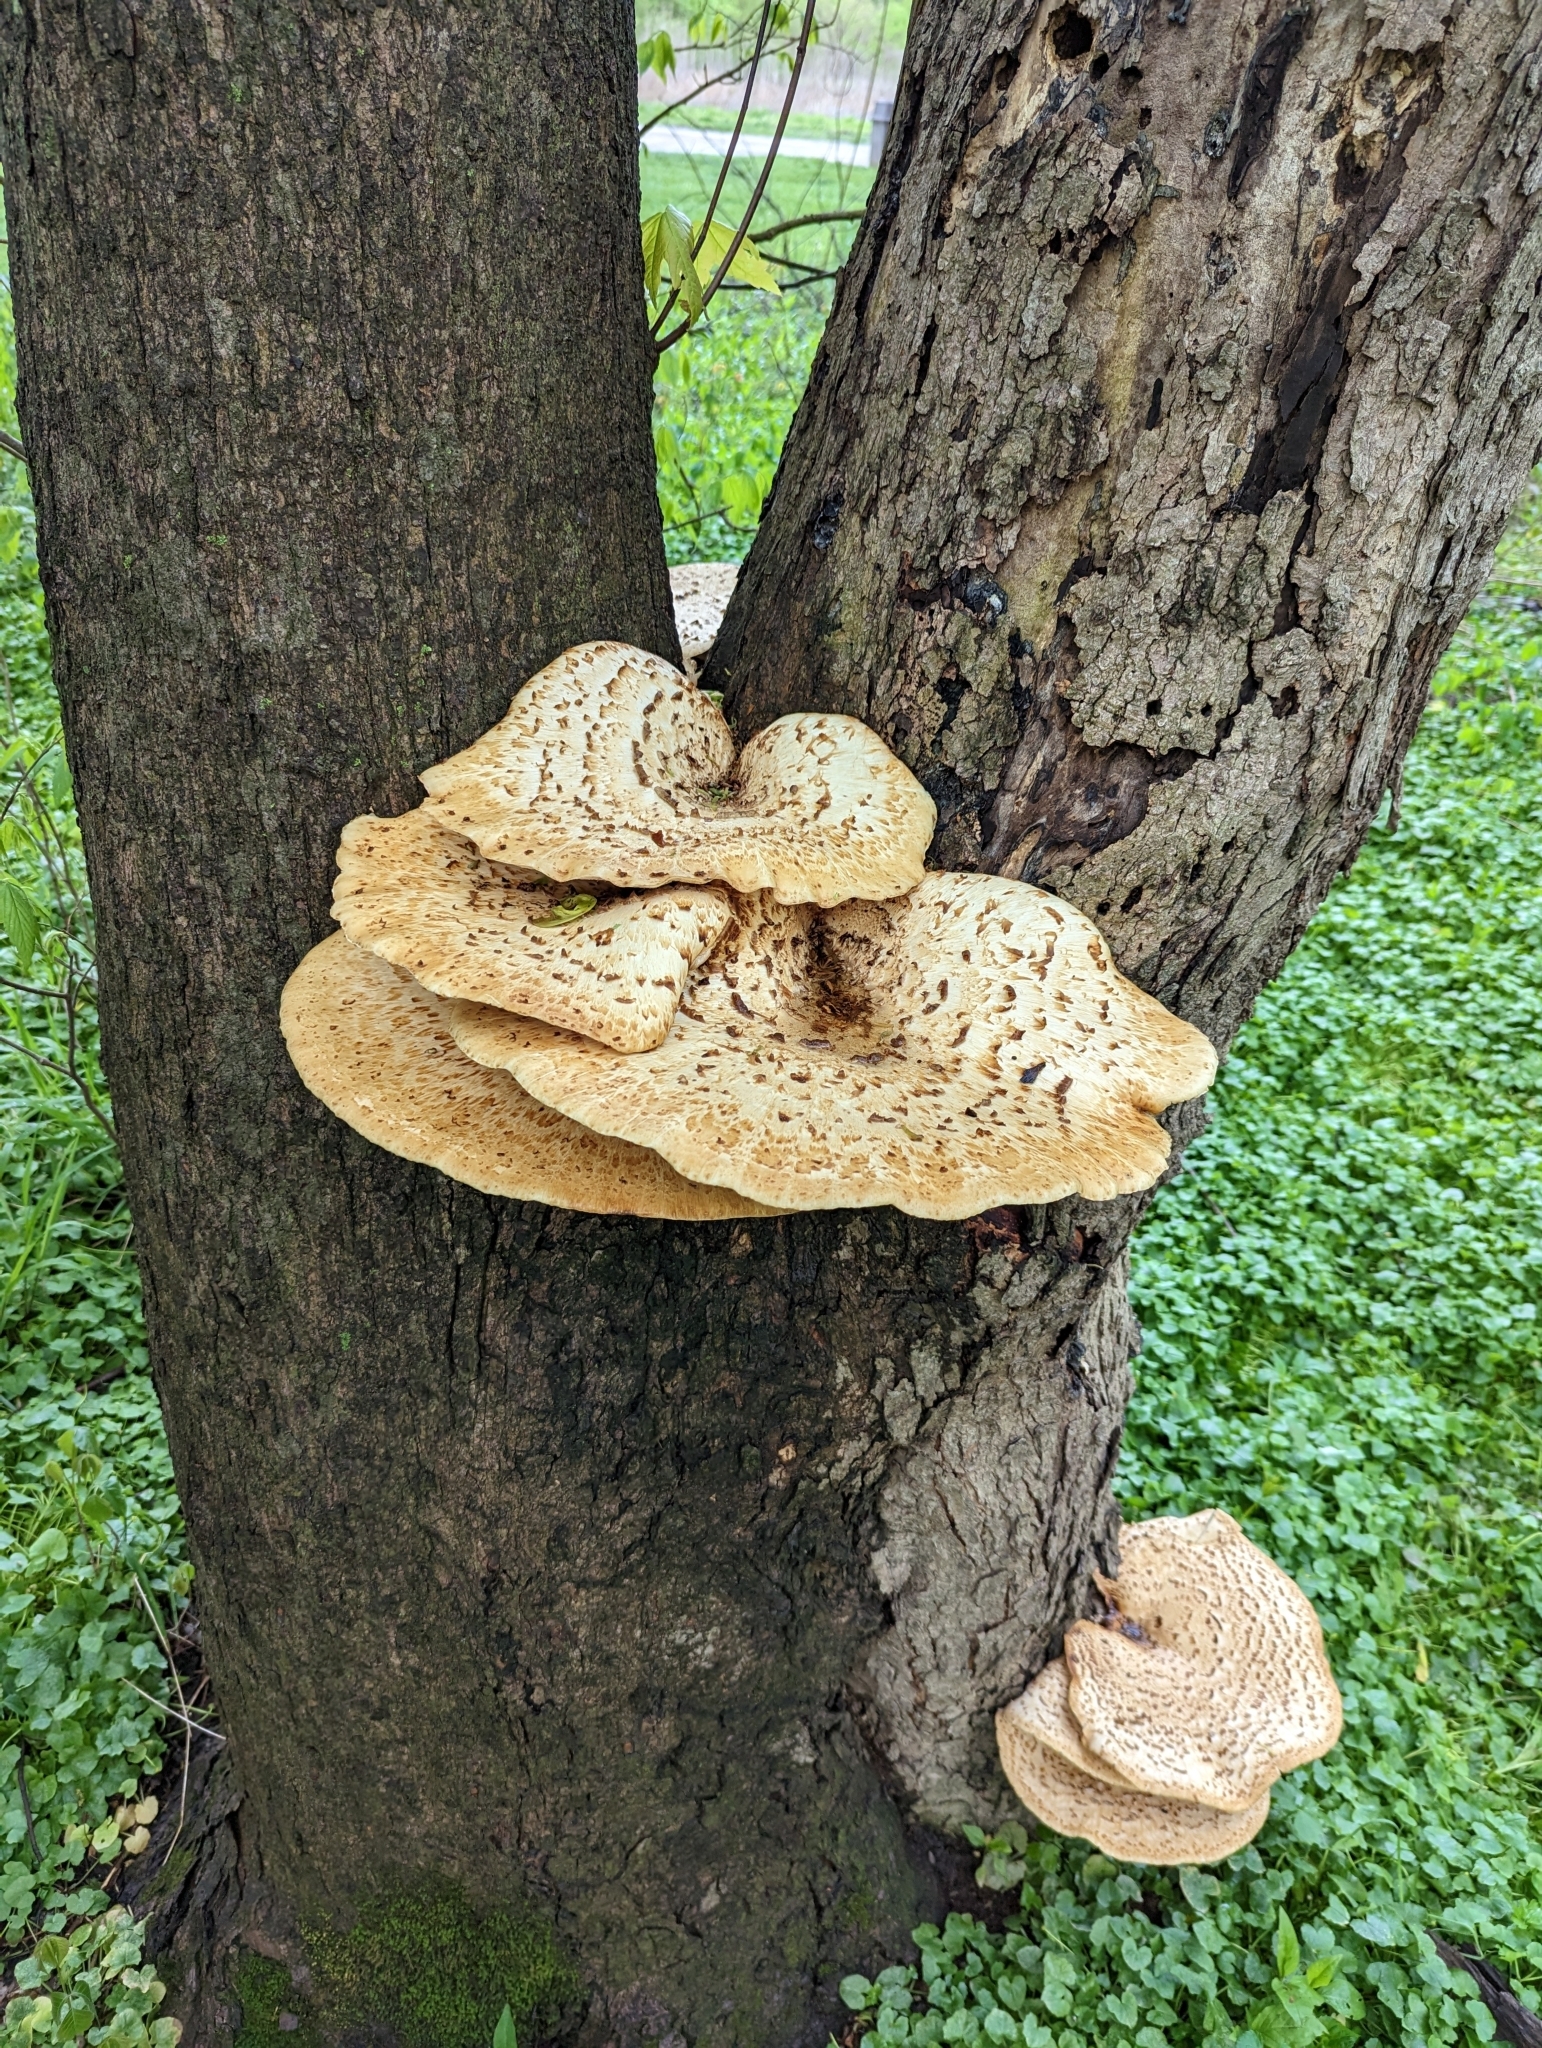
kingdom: Fungi
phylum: Basidiomycota
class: Agaricomycetes
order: Polyporales
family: Polyporaceae
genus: Cerioporus
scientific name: Cerioporus squamosus
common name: Dryad's saddle
